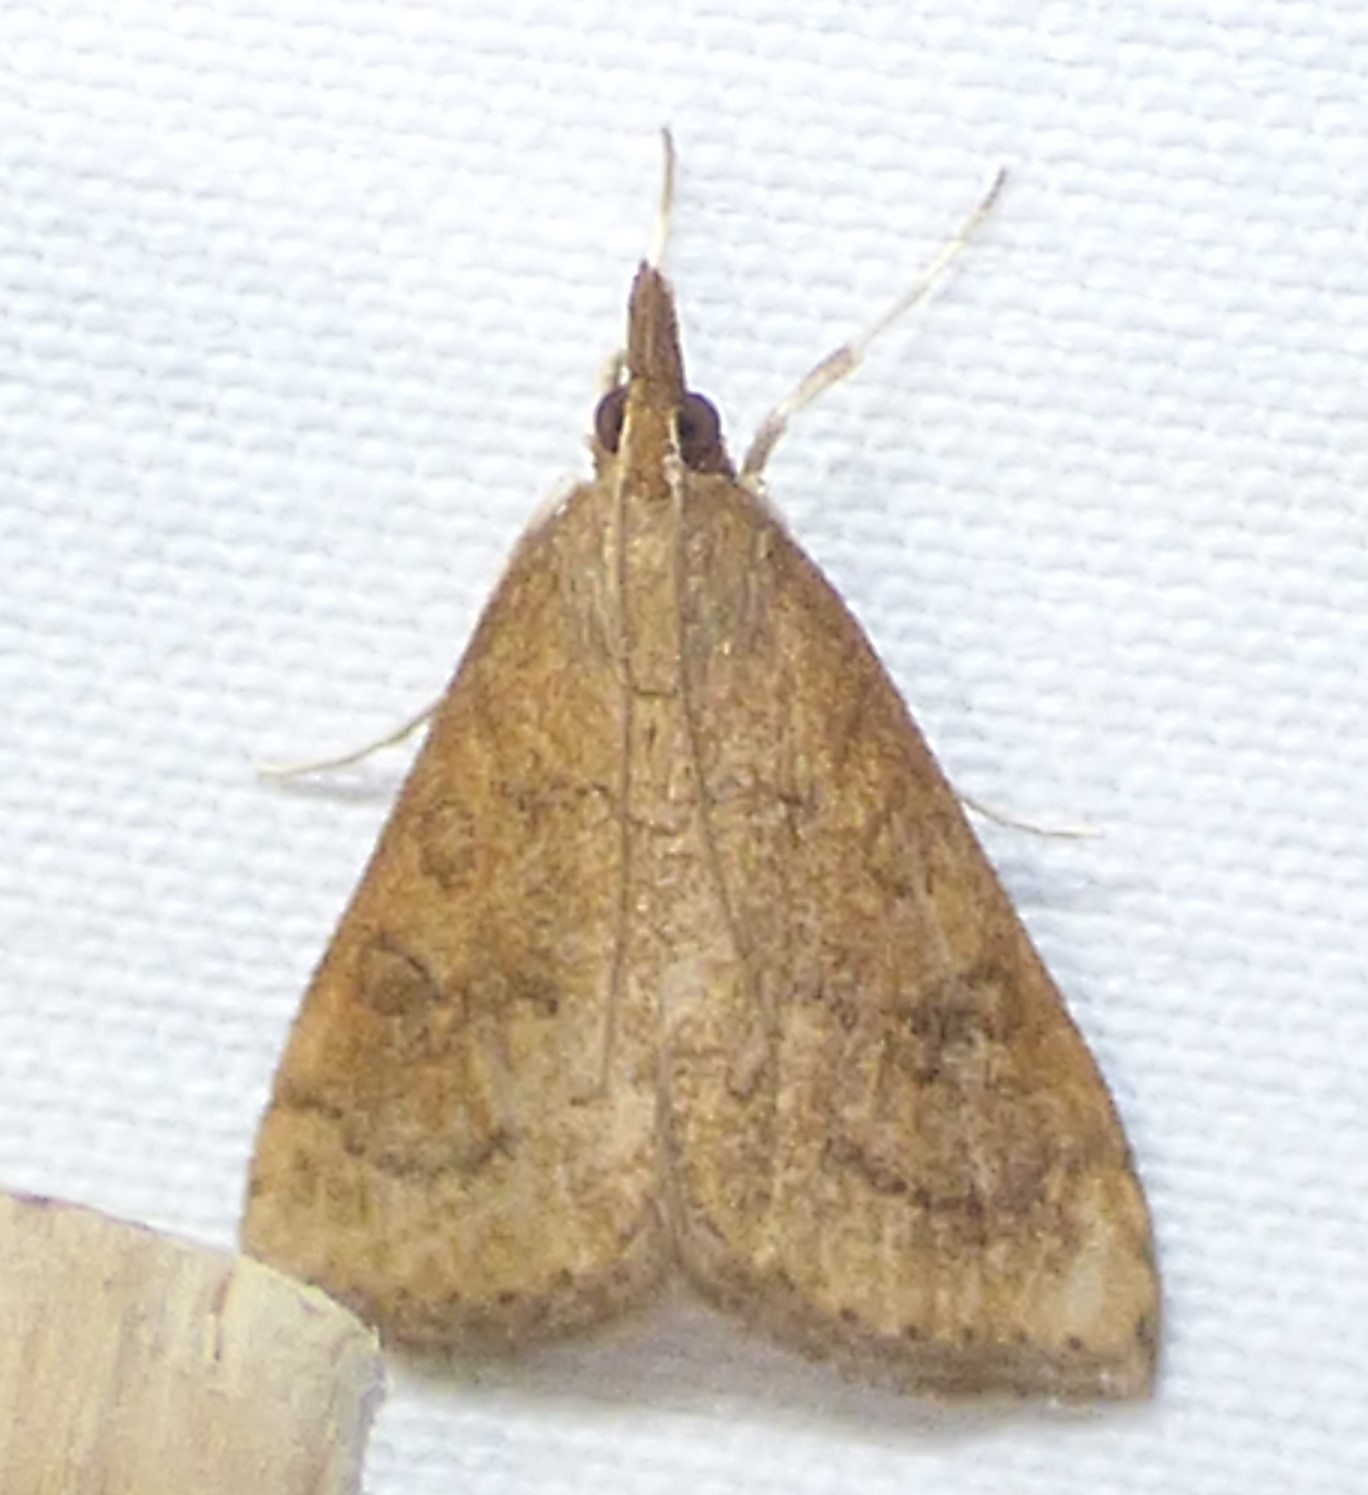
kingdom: Animalia
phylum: Arthropoda
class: Insecta
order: Lepidoptera
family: Crambidae
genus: Udea
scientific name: Udea rubigalis
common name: Celery leaftier moth
